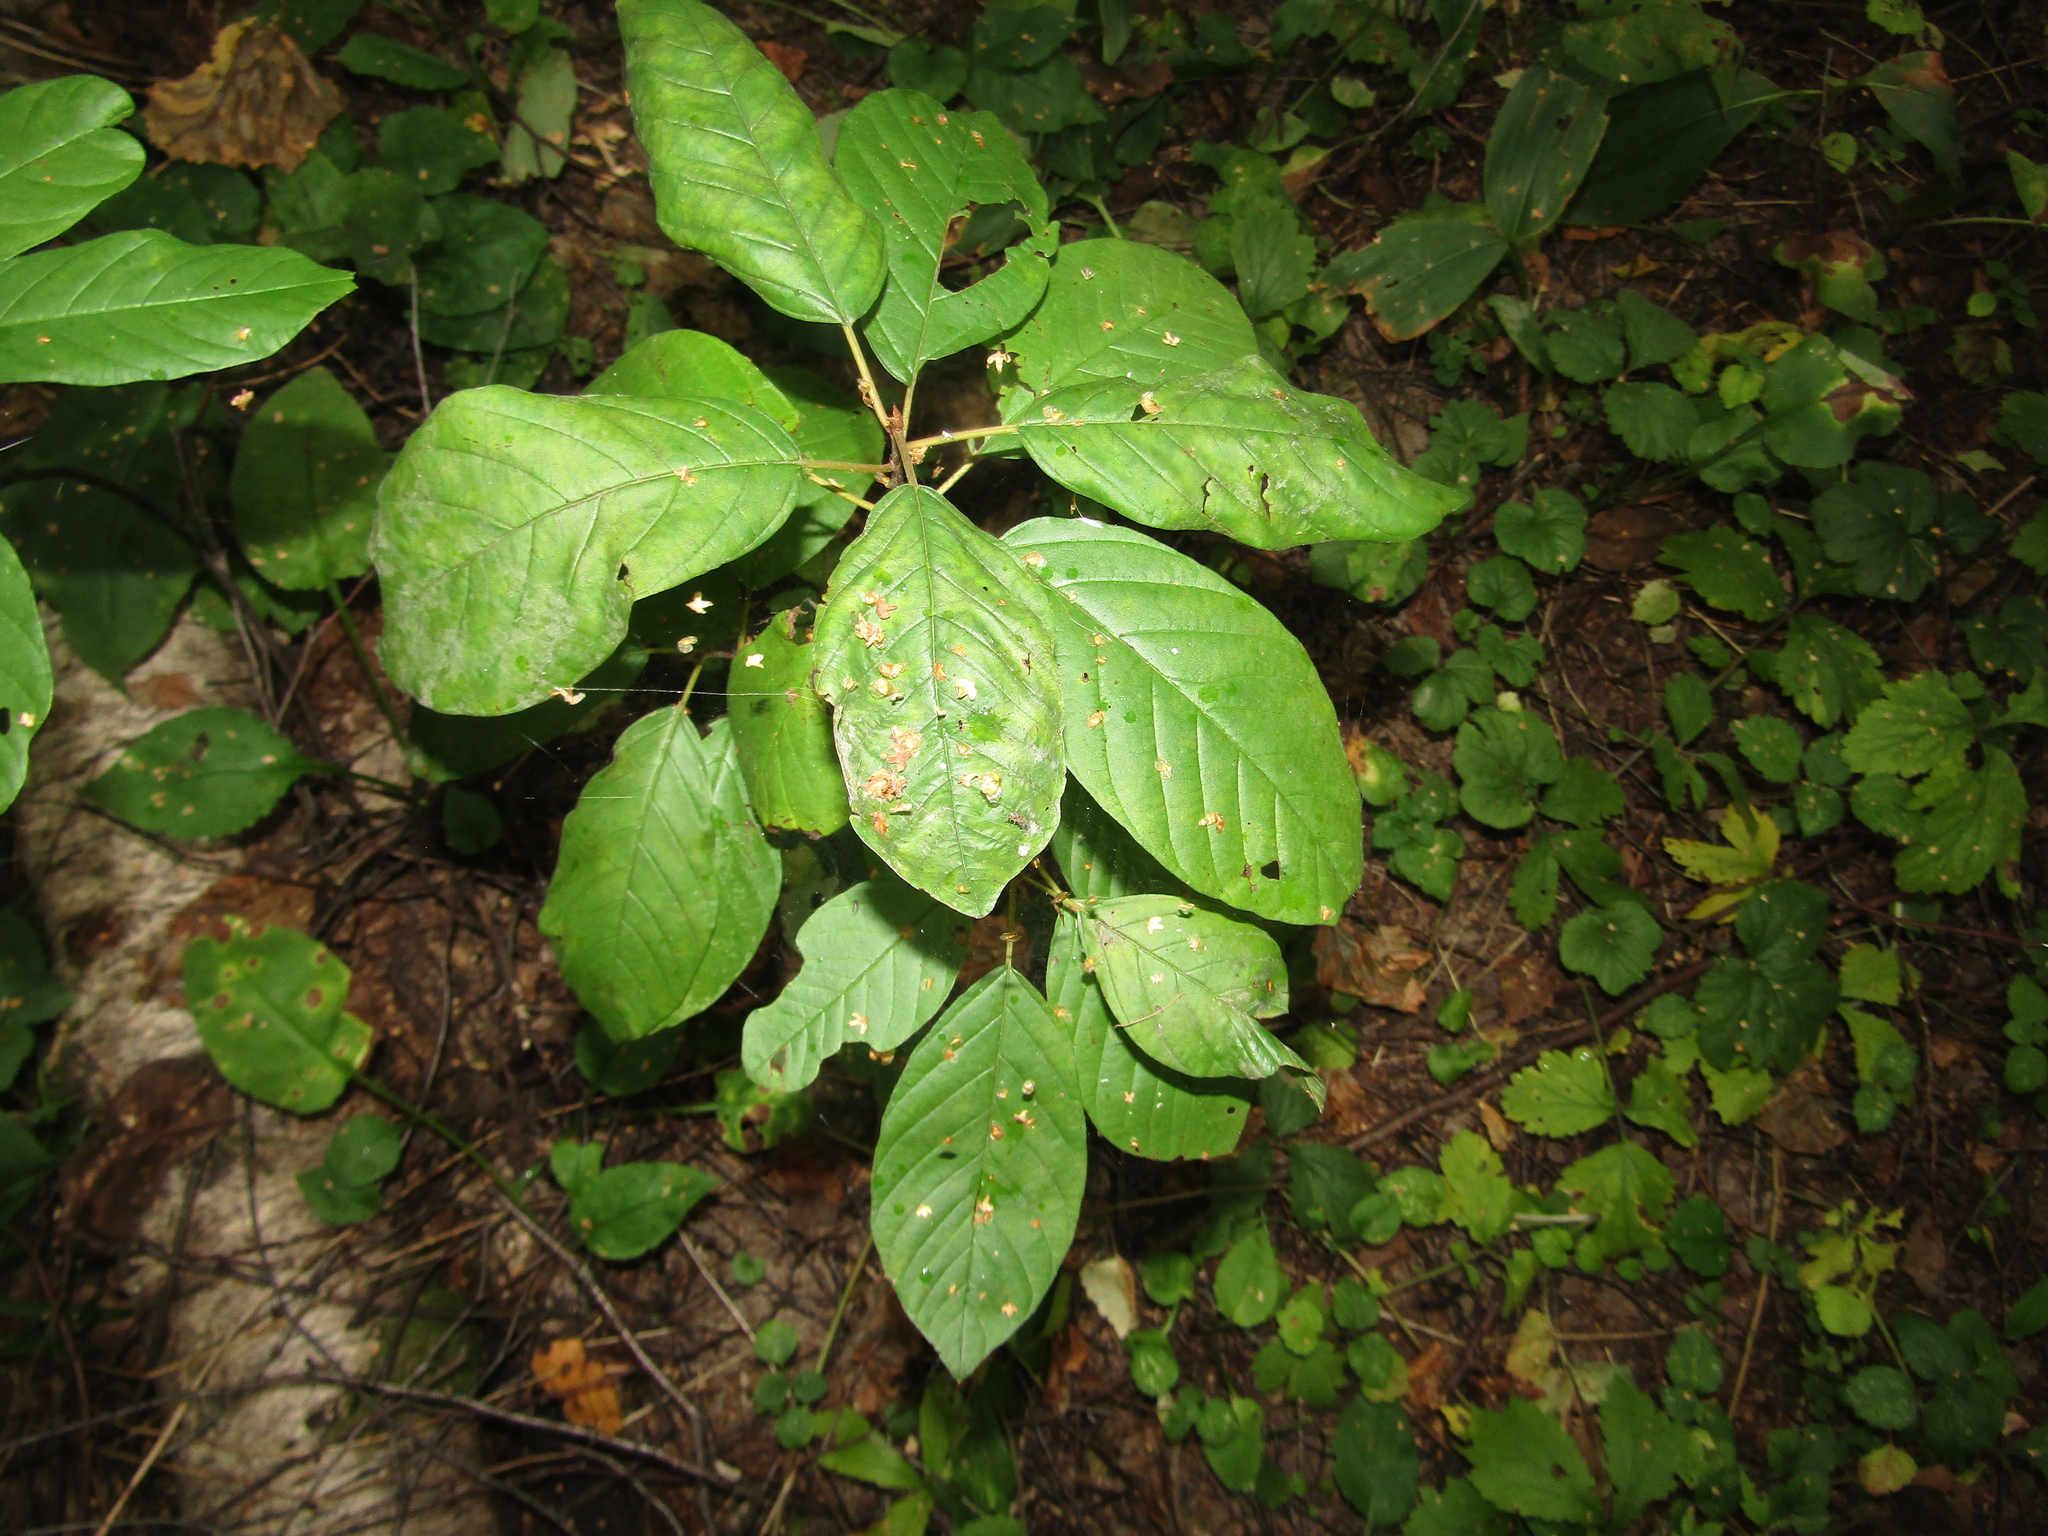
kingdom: Plantae
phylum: Tracheophyta
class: Magnoliopsida
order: Rosales
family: Rhamnaceae
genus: Frangula
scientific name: Frangula alnus
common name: Alder buckthorn
